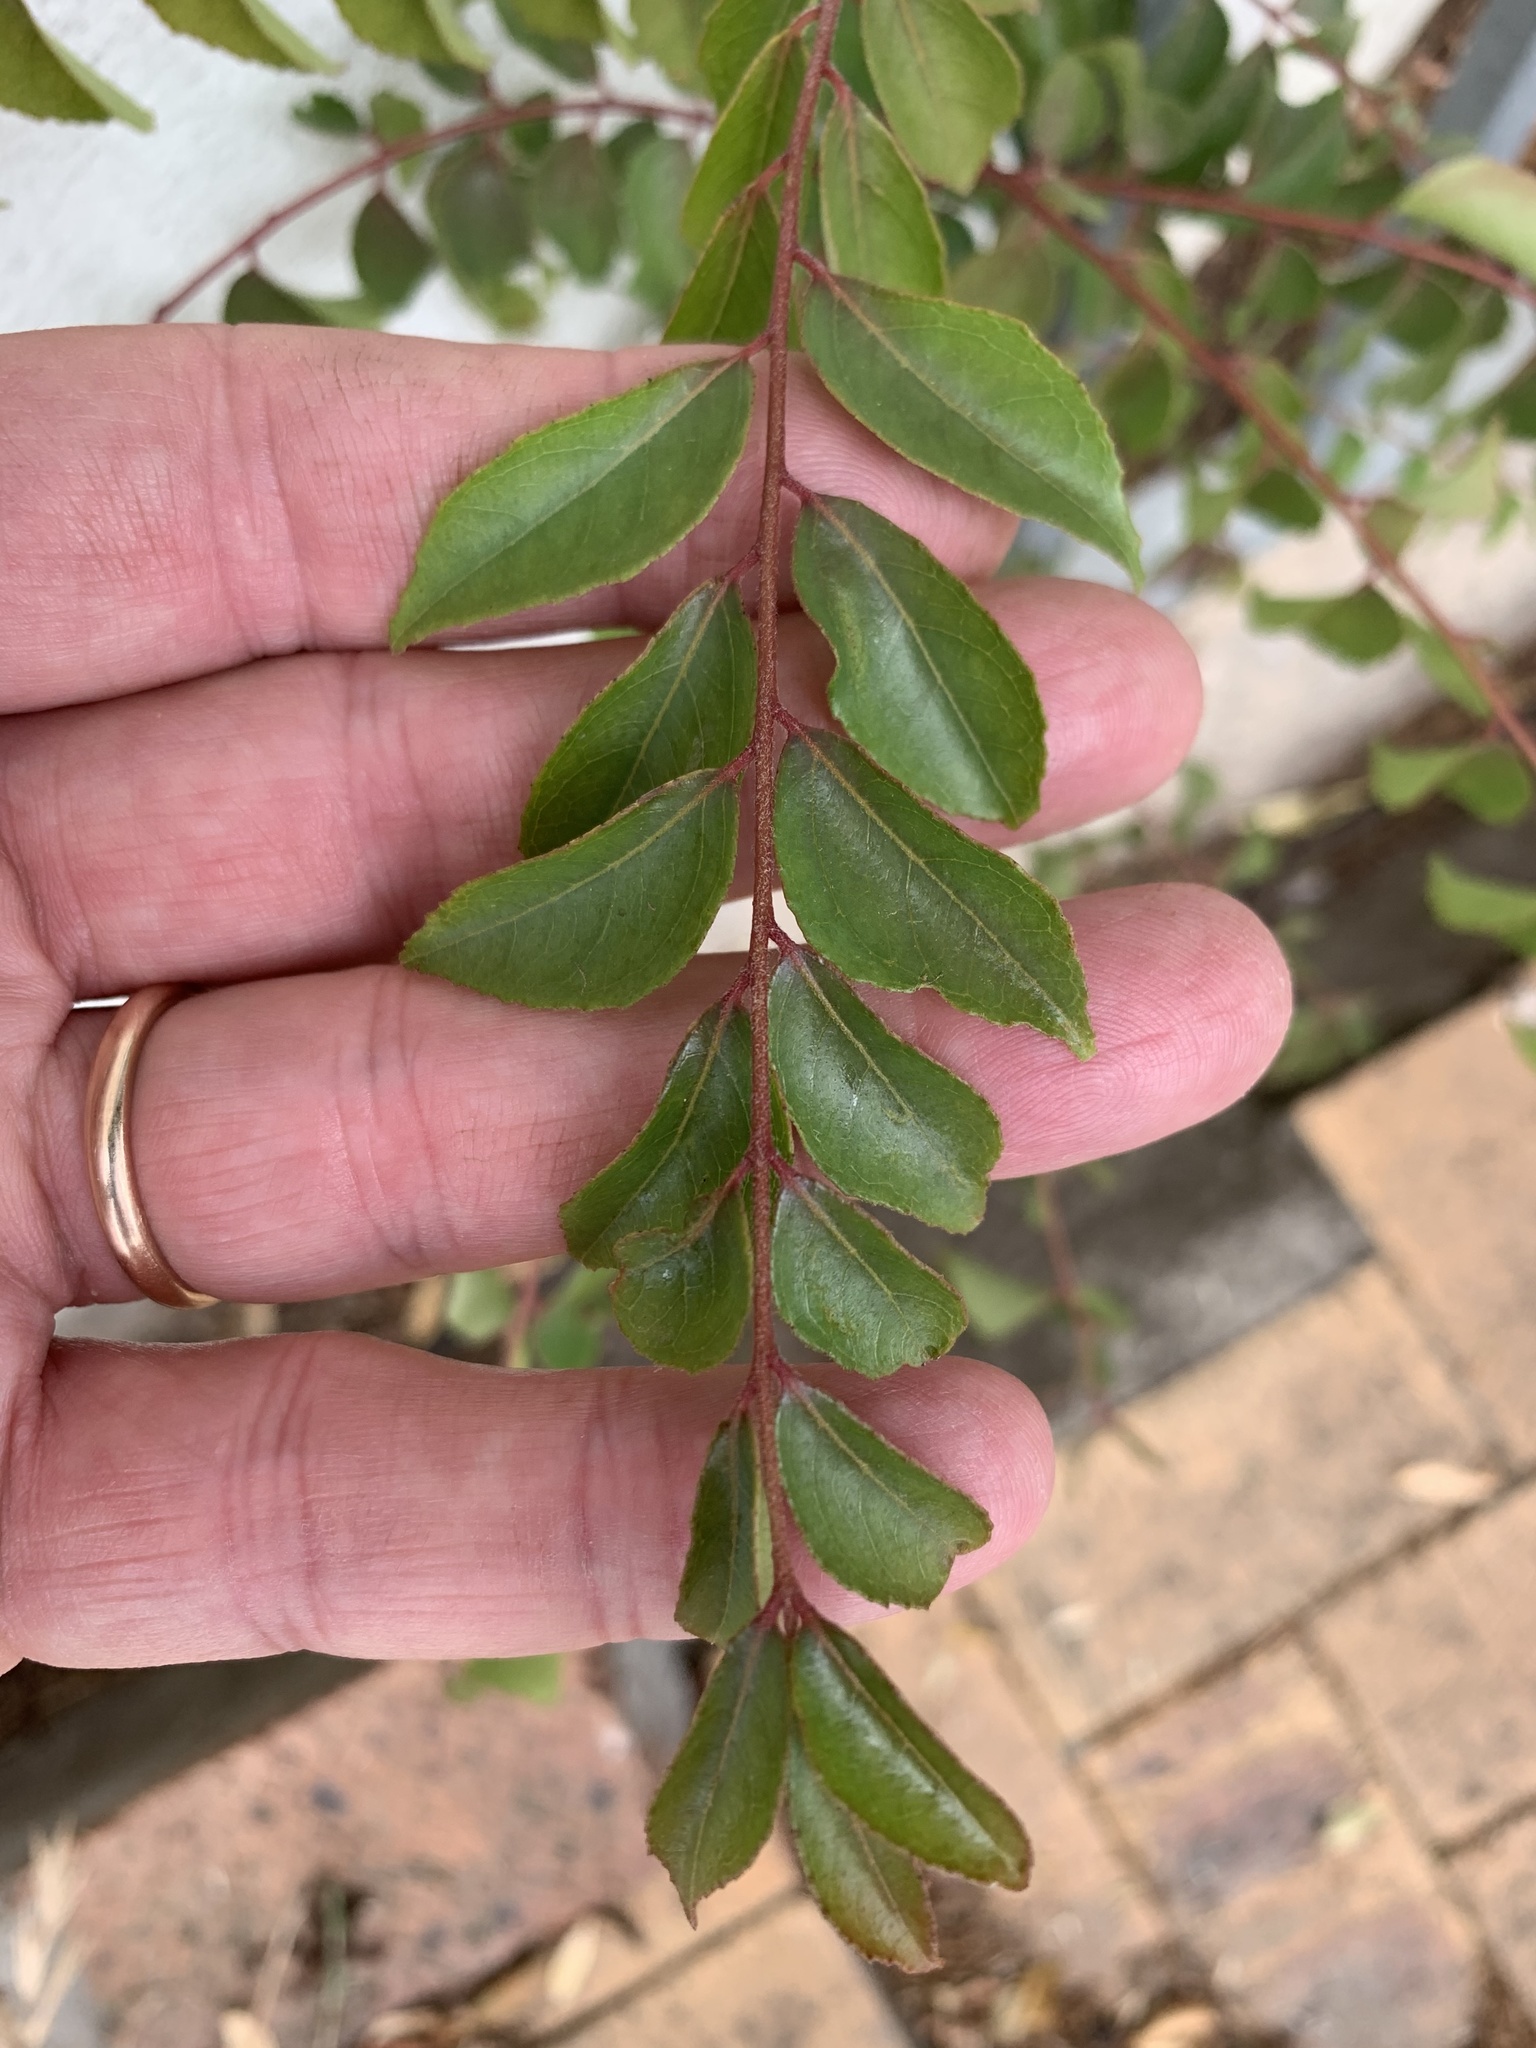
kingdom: Plantae
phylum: Tracheophyta
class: Magnoliopsida
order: Sapindales
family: Rutaceae
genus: Murraya
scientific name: Murraya koenigii
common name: Curry-plant
